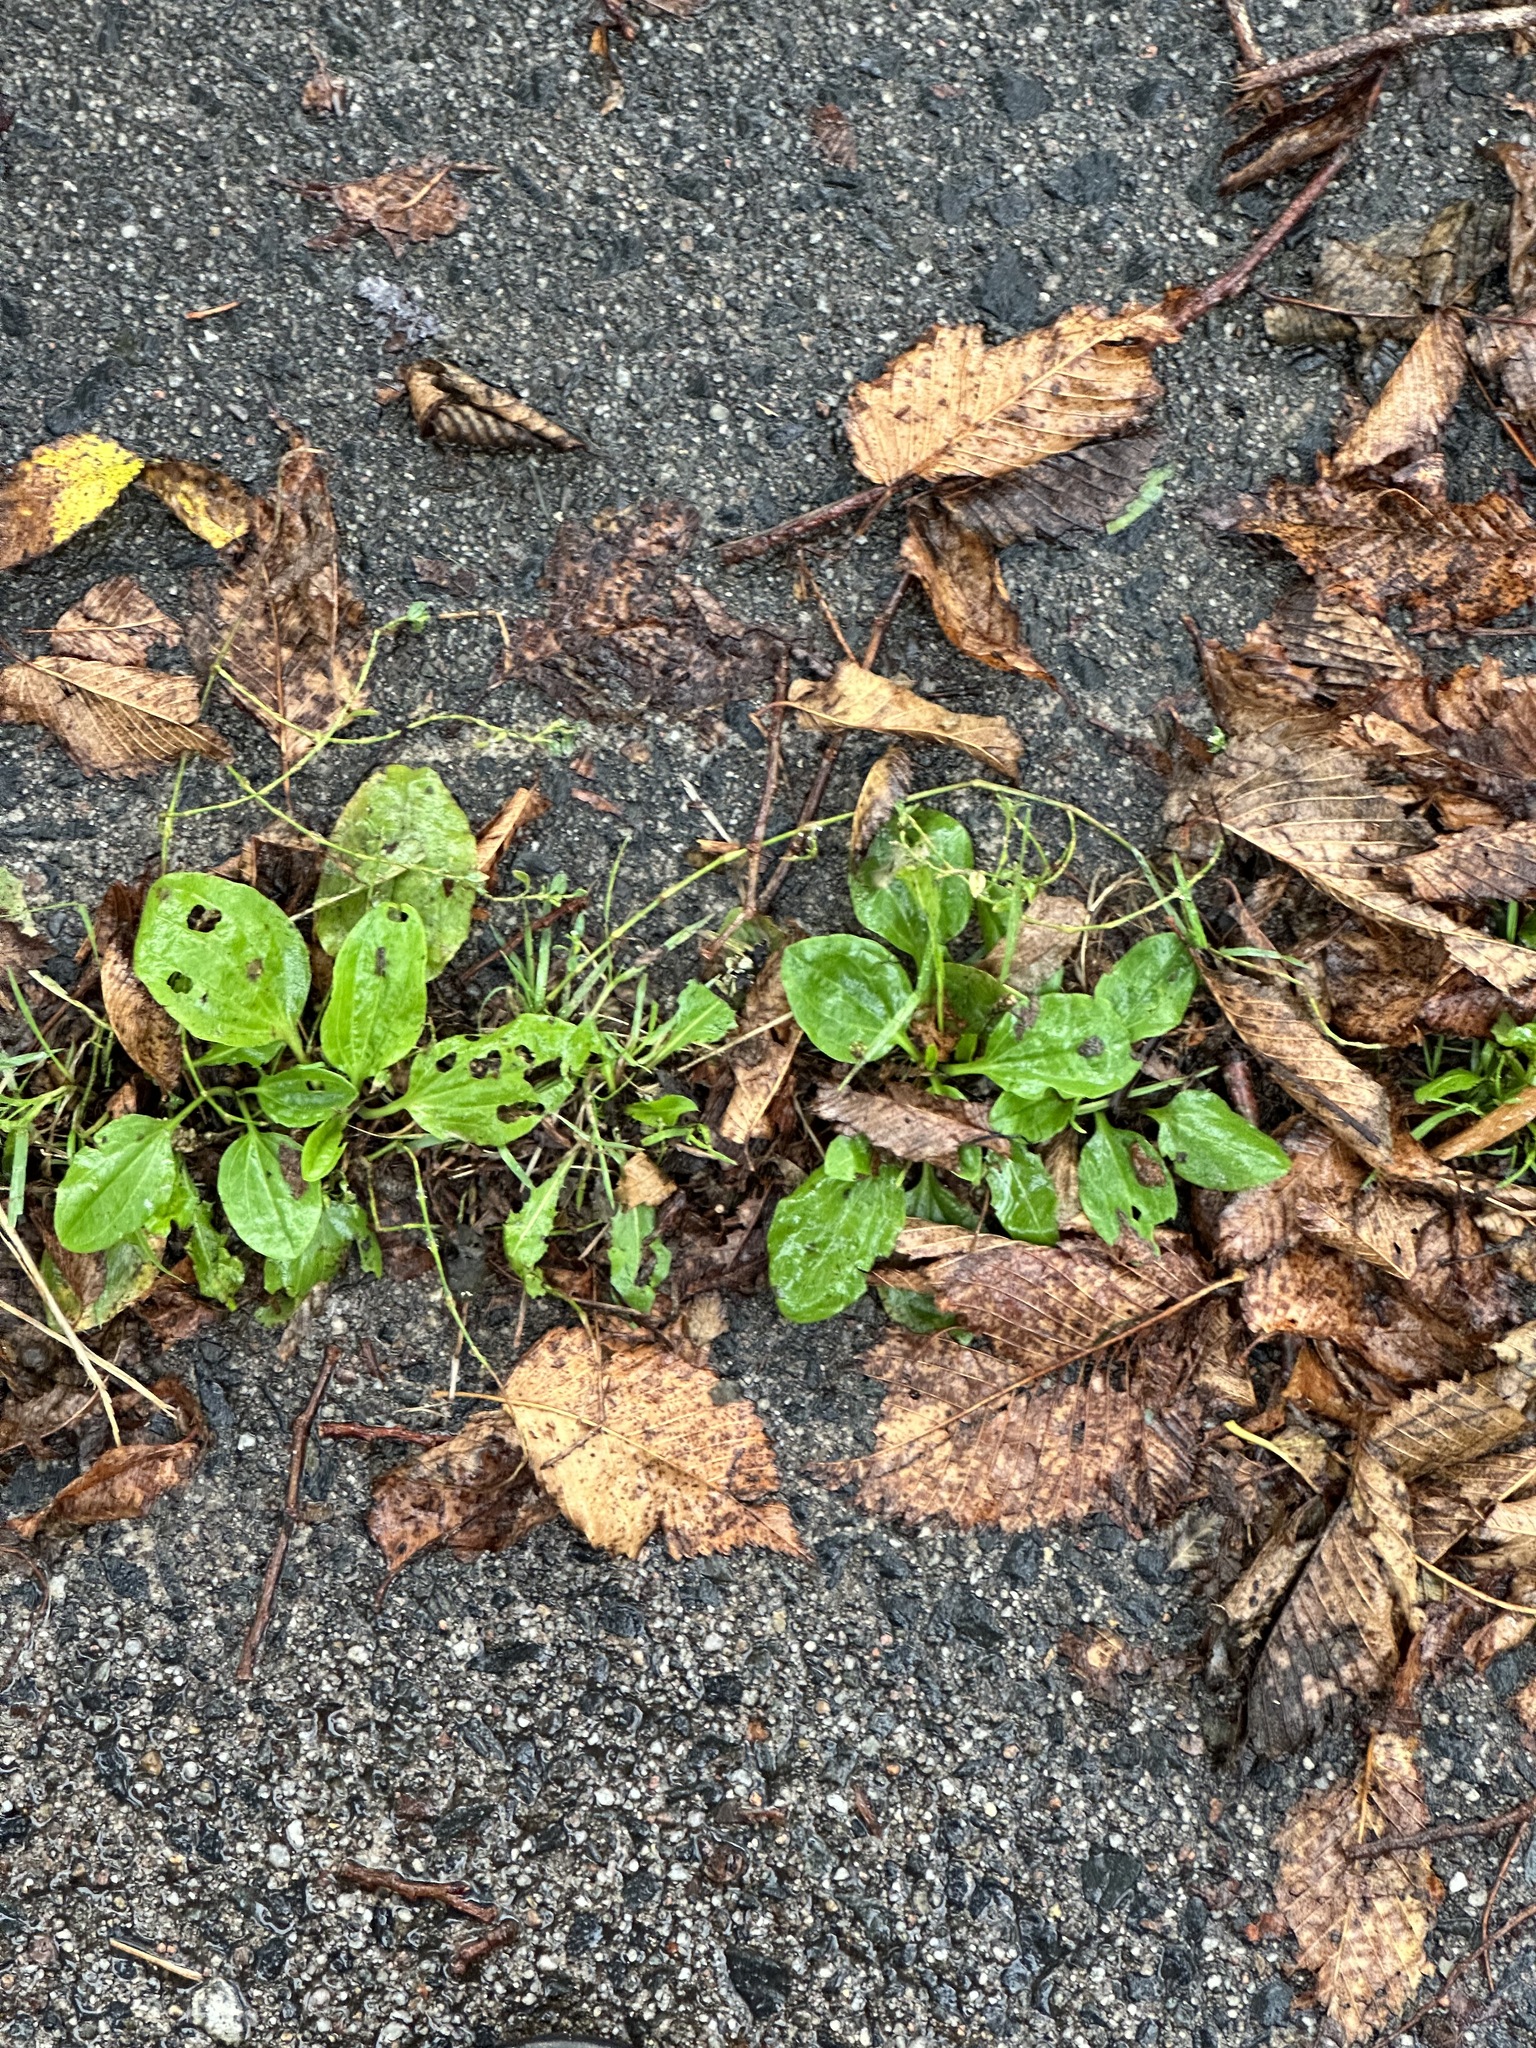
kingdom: Plantae
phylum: Tracheophyta
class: Magnoliopsida
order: Lamiales
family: Plantaginaceae
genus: Plantago
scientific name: Plantago major
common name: Common plantain
